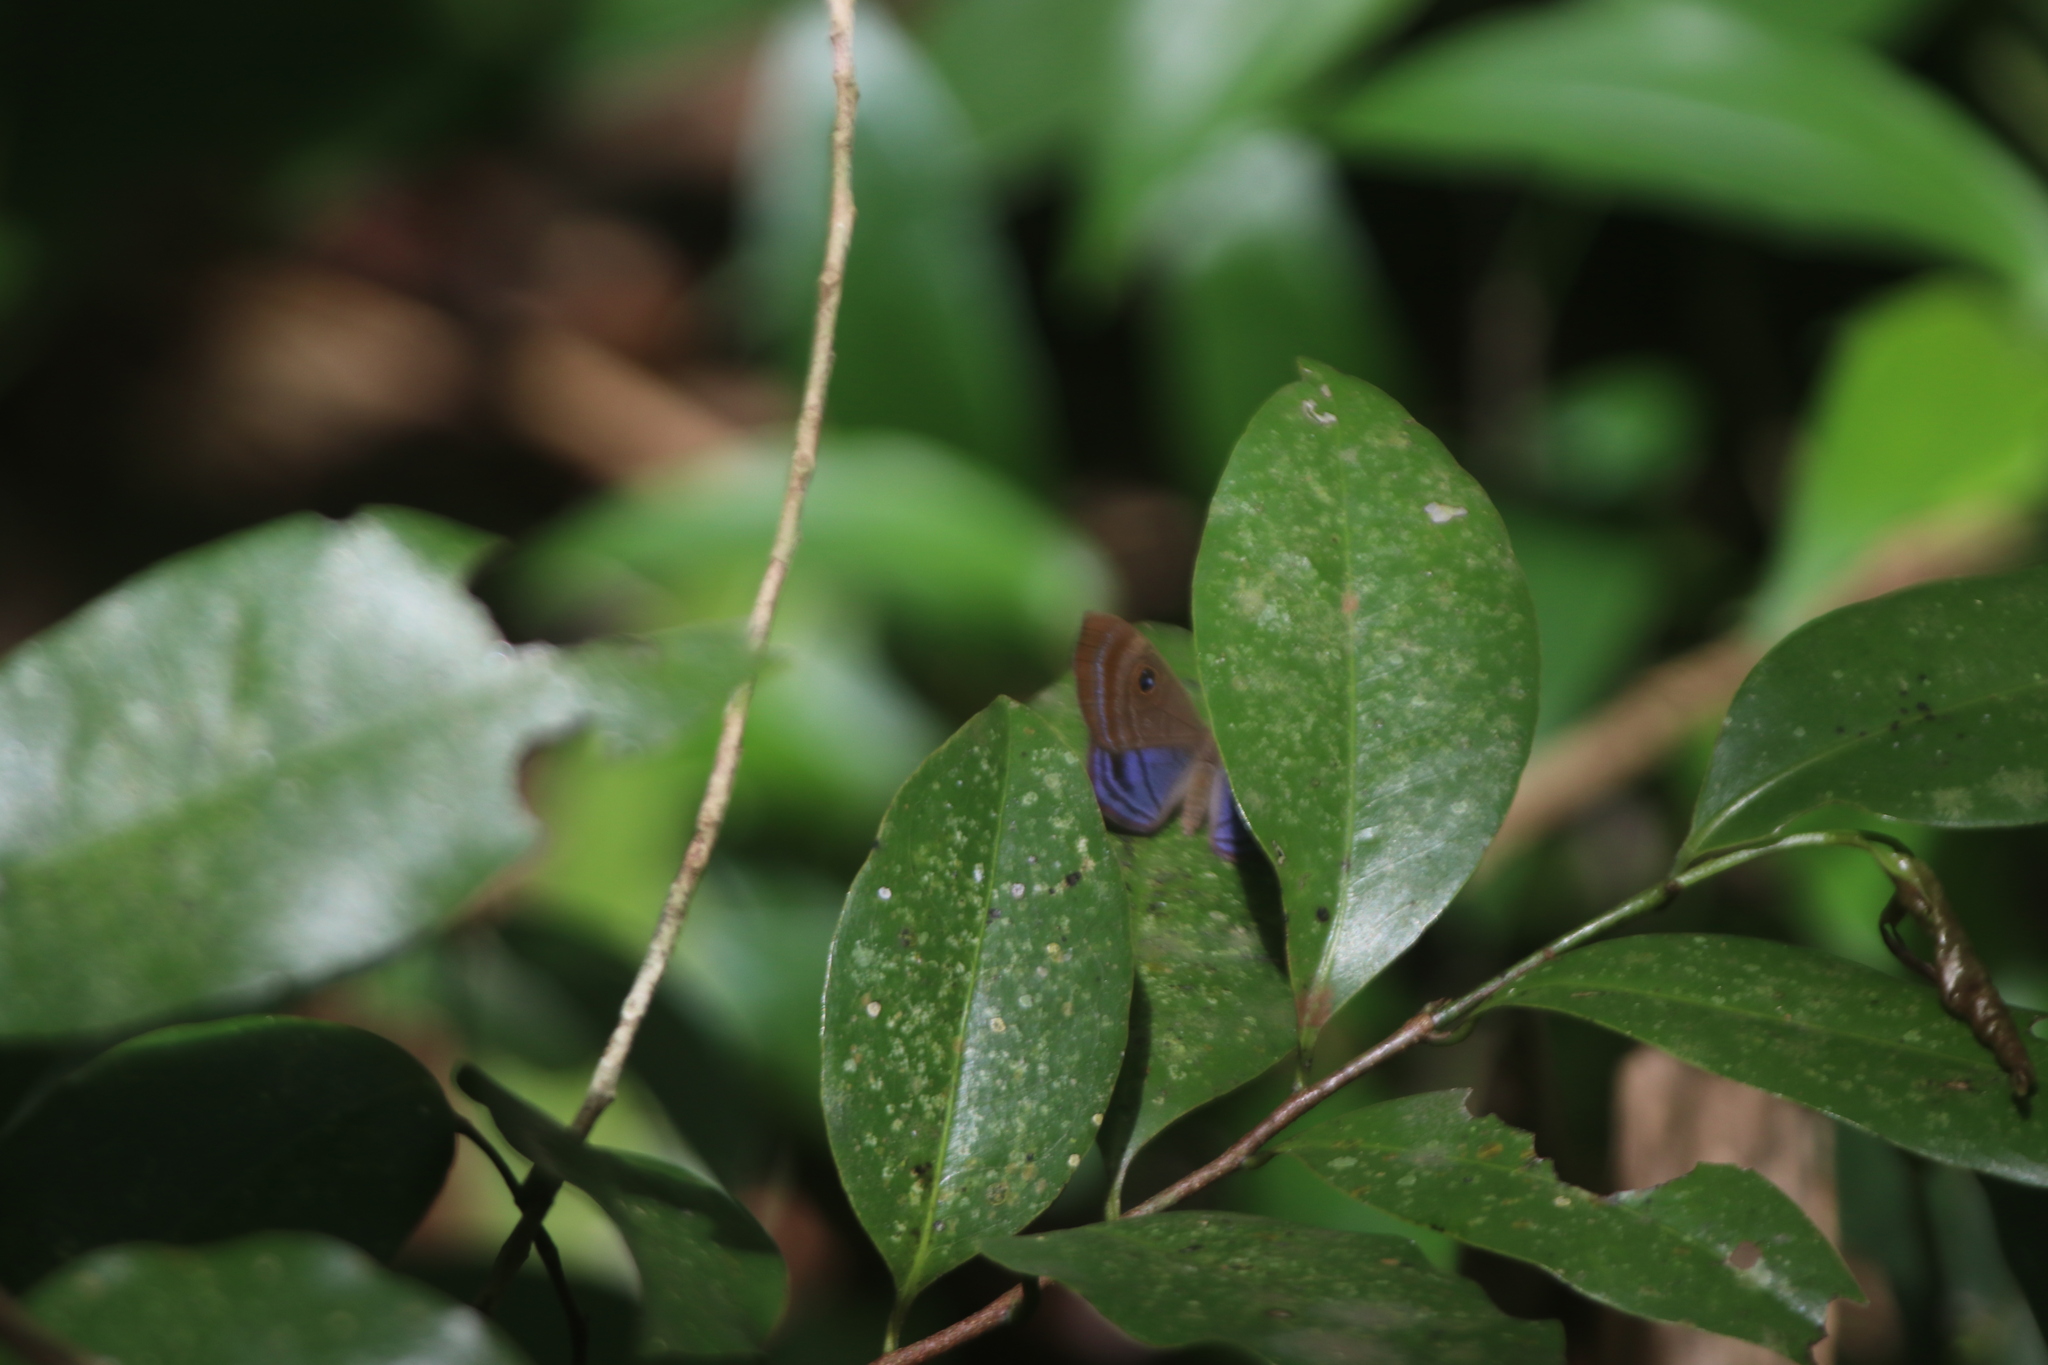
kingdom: Animalia
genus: Mesosemia
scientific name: Mesosemia lamachus
